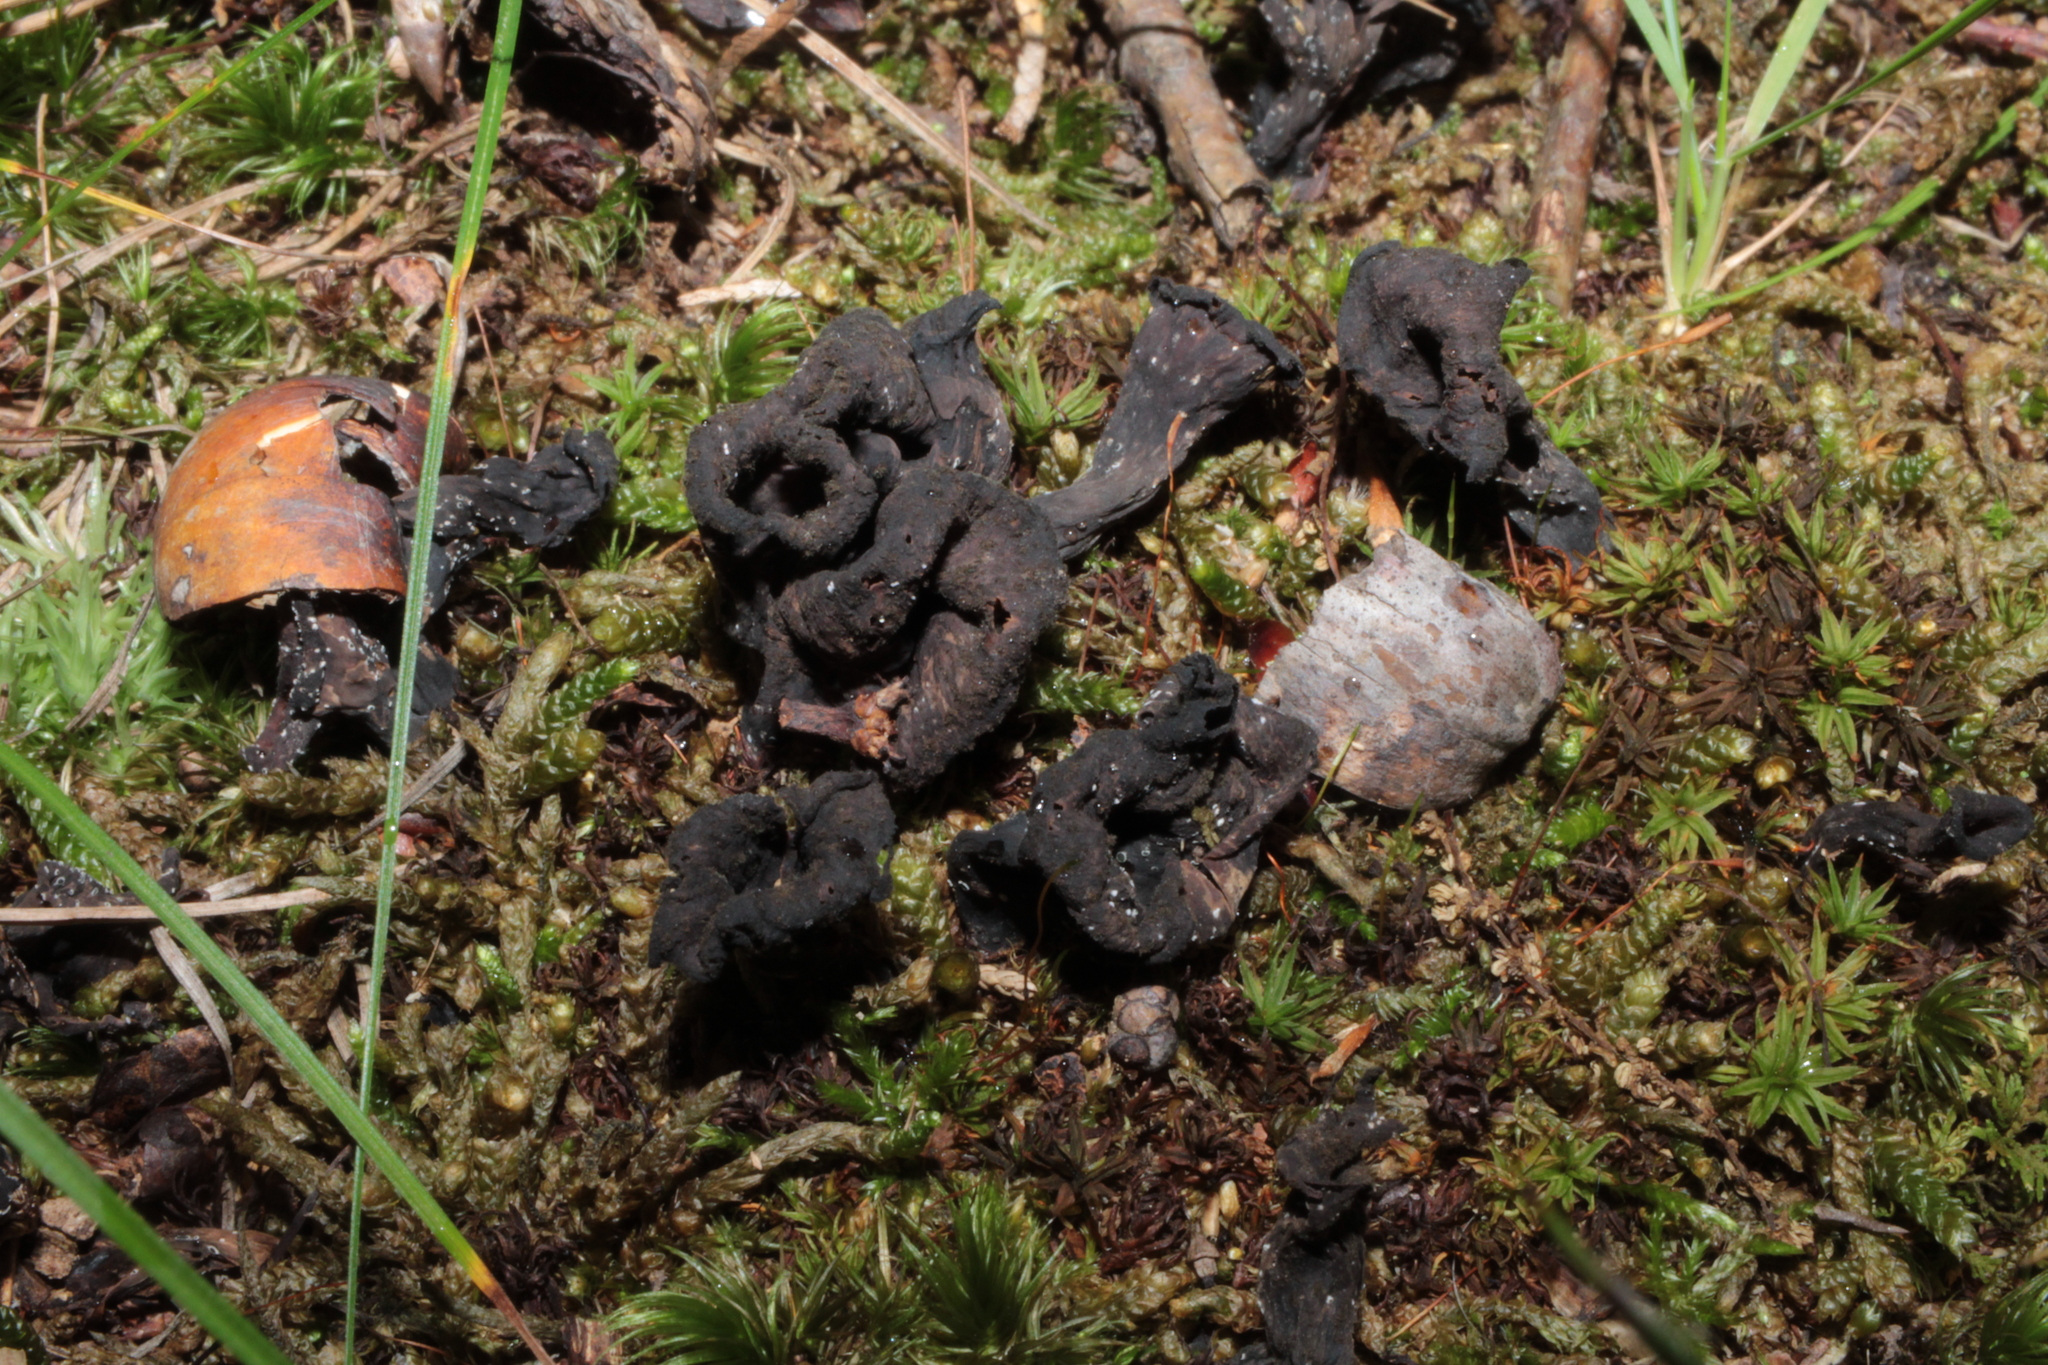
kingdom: Fungi
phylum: Basidiomycota
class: Agaricomycetes
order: Cantharellales
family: Hydnaceae
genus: Craterellus
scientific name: Craterellus cornucopioides
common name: Horn of plenty
